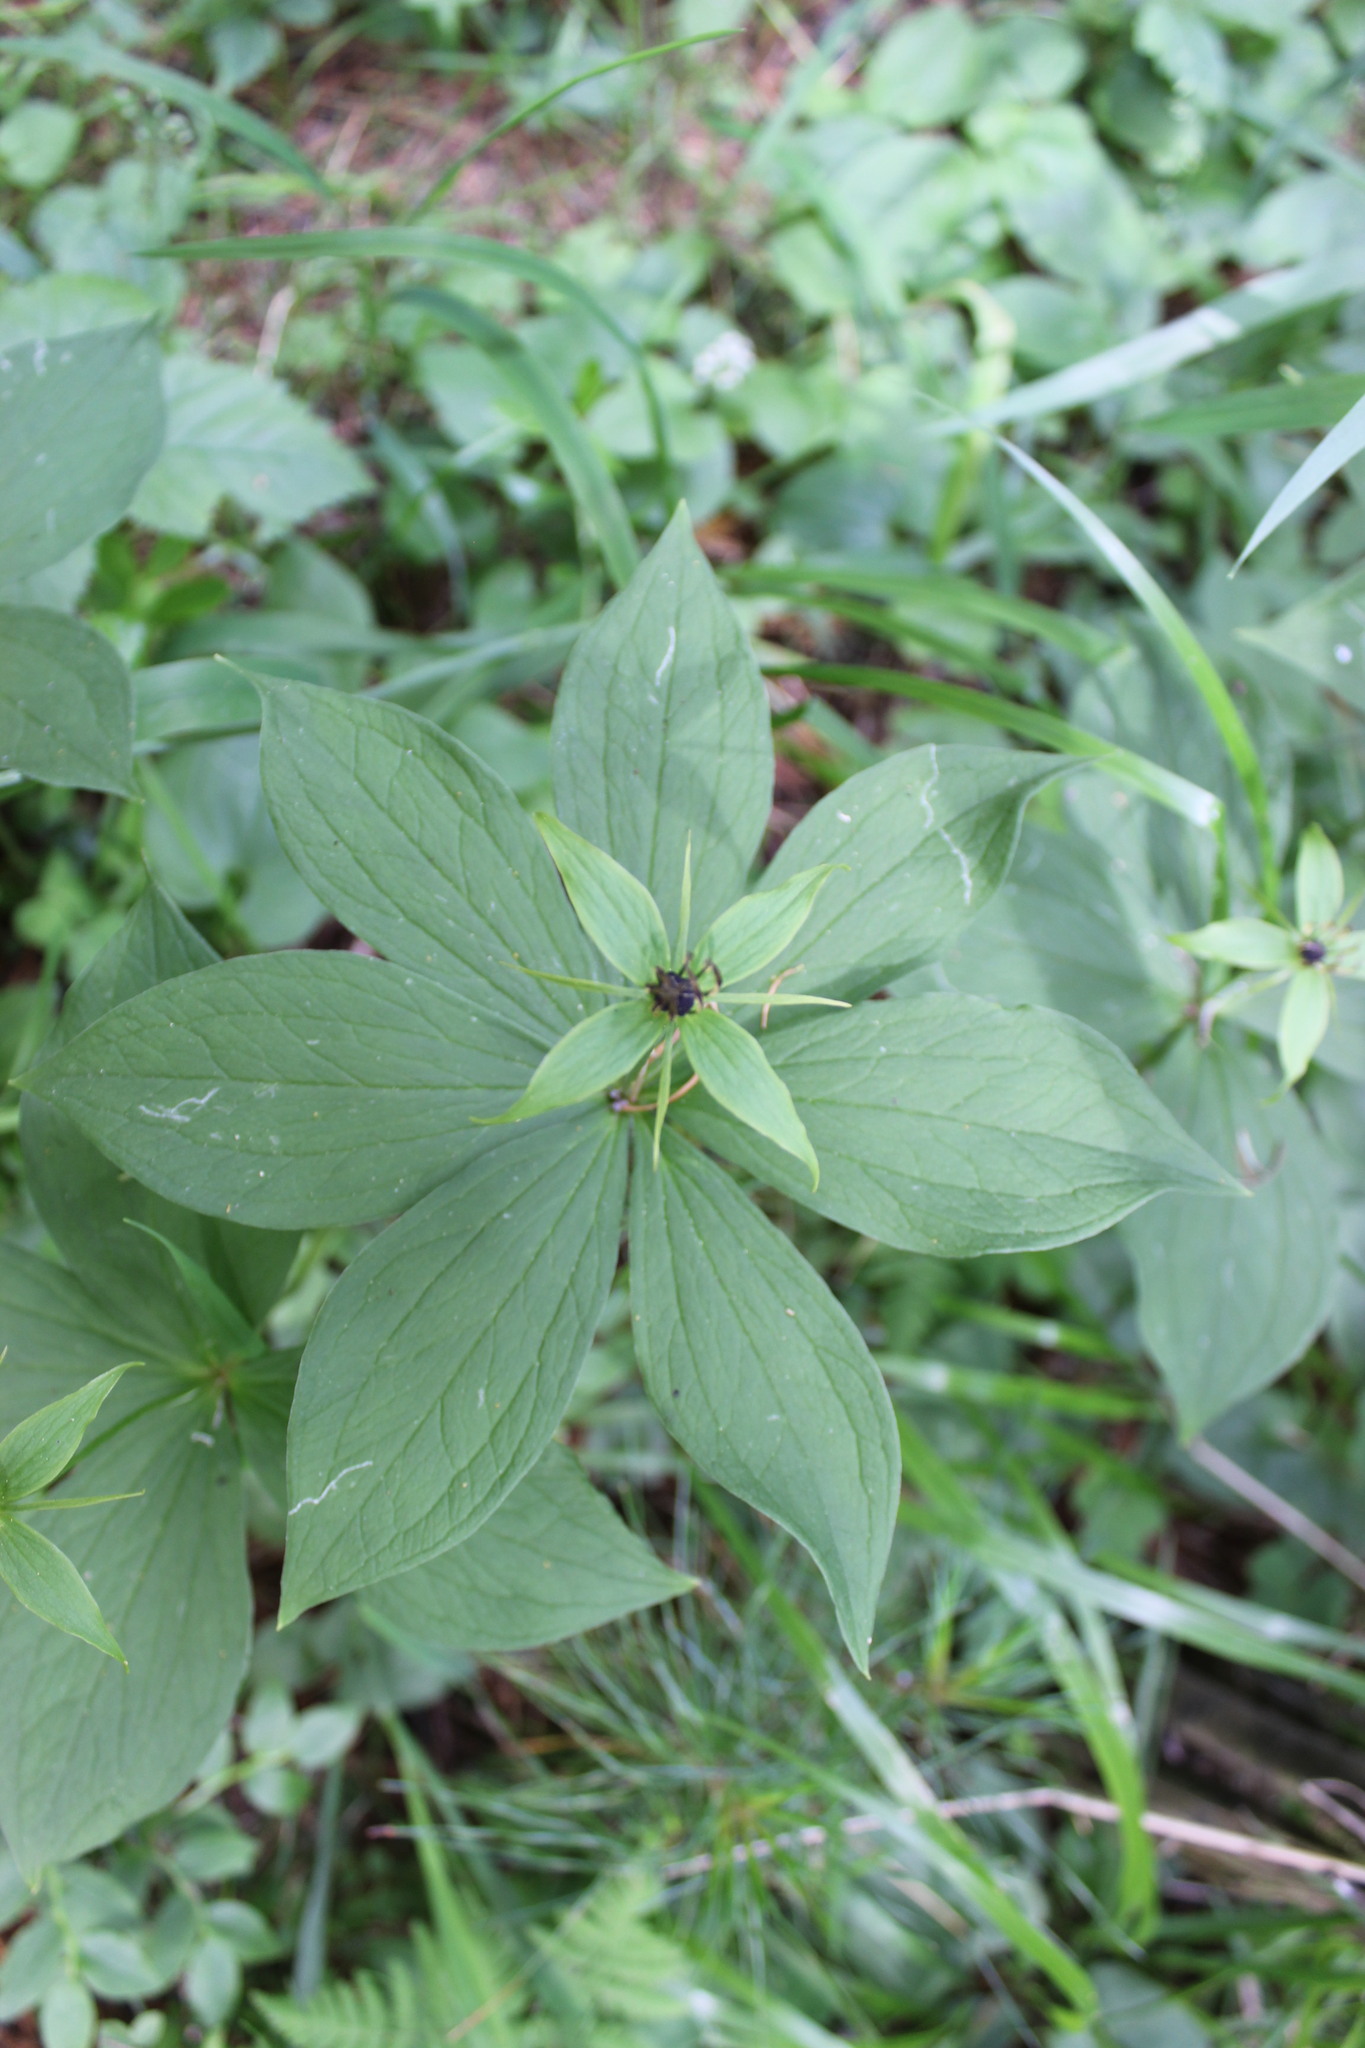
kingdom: Plantae
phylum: Tracheophyta
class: Liliopsida
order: Liliales
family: Melanthiaceae
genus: Paris
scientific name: Paris quadrifolia
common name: Herb-paris
